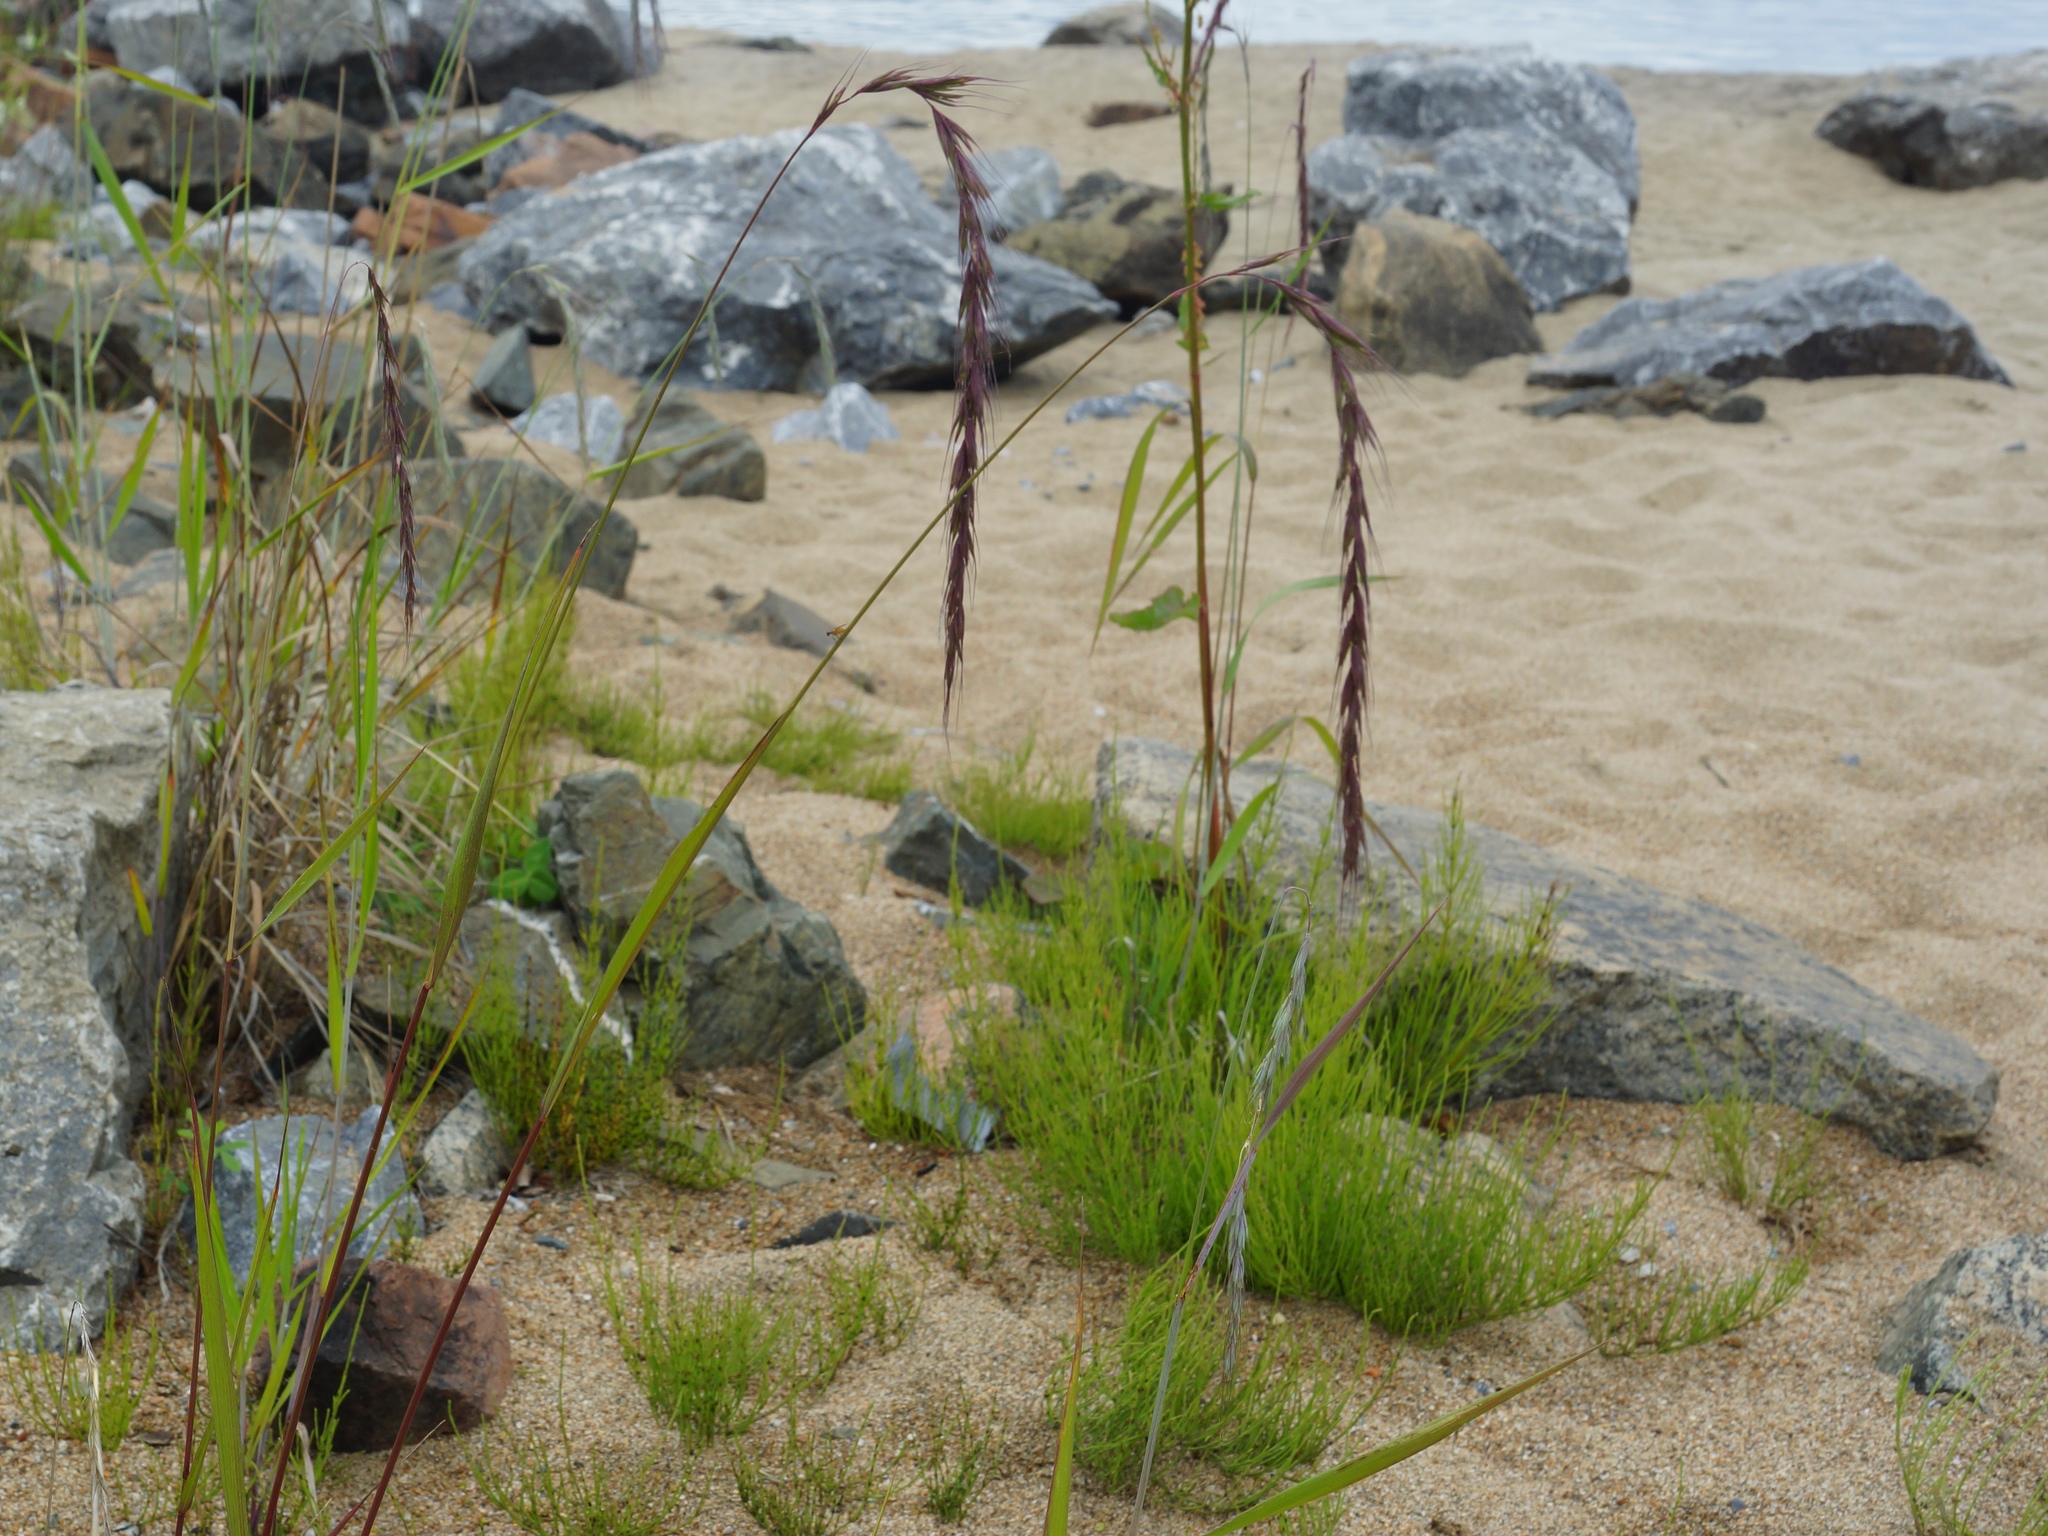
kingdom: Plantae
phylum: Tracheophyta
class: Liliopsida
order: Poales
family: Poaceae
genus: Elymus
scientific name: Elymus sibiricus
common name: Siberian wildrye
